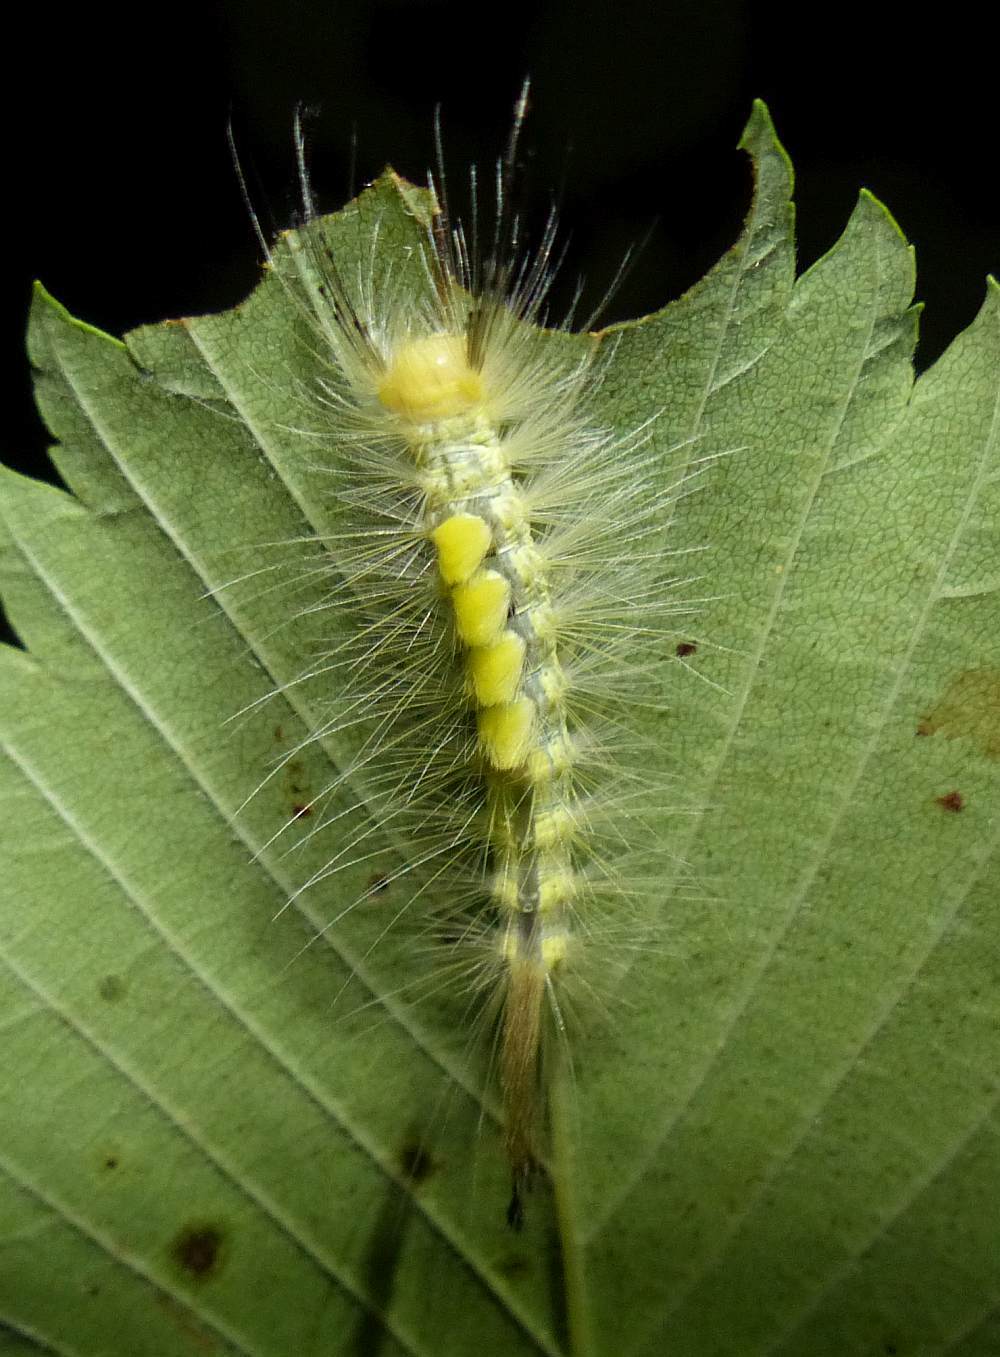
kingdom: Animalia
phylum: Arthropoda
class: Insecta
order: Lepidoptera
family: Erebidae
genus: Orgyia
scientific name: Orgyia definita
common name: Definite tussock moth
